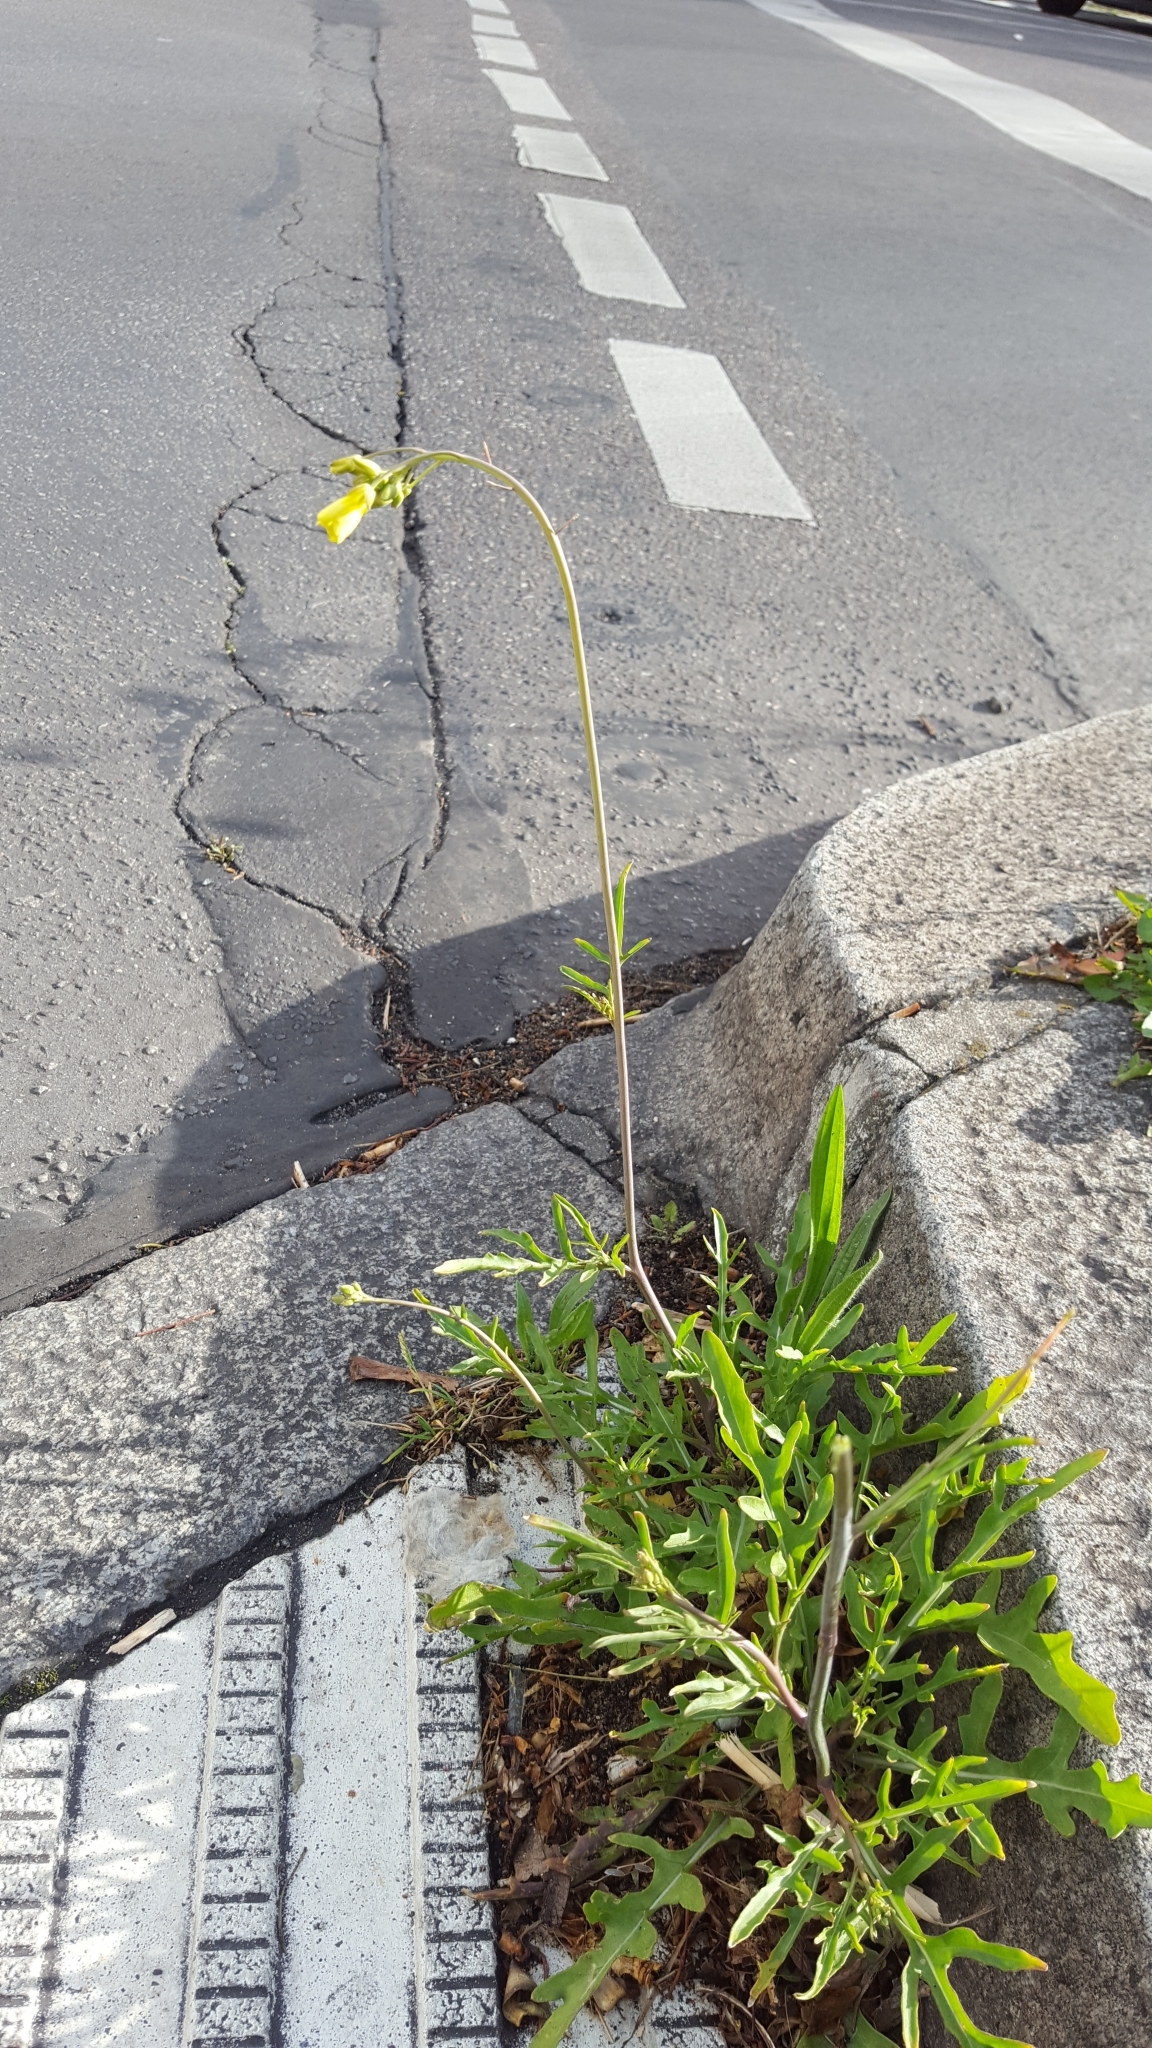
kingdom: Plantae
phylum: Tracheophyta
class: Magnoliopsida
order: Brassicales
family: Brassicaceae
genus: Diplotaxis
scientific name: Diplotaxis tenuifolia
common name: Perennial wall-rocket
